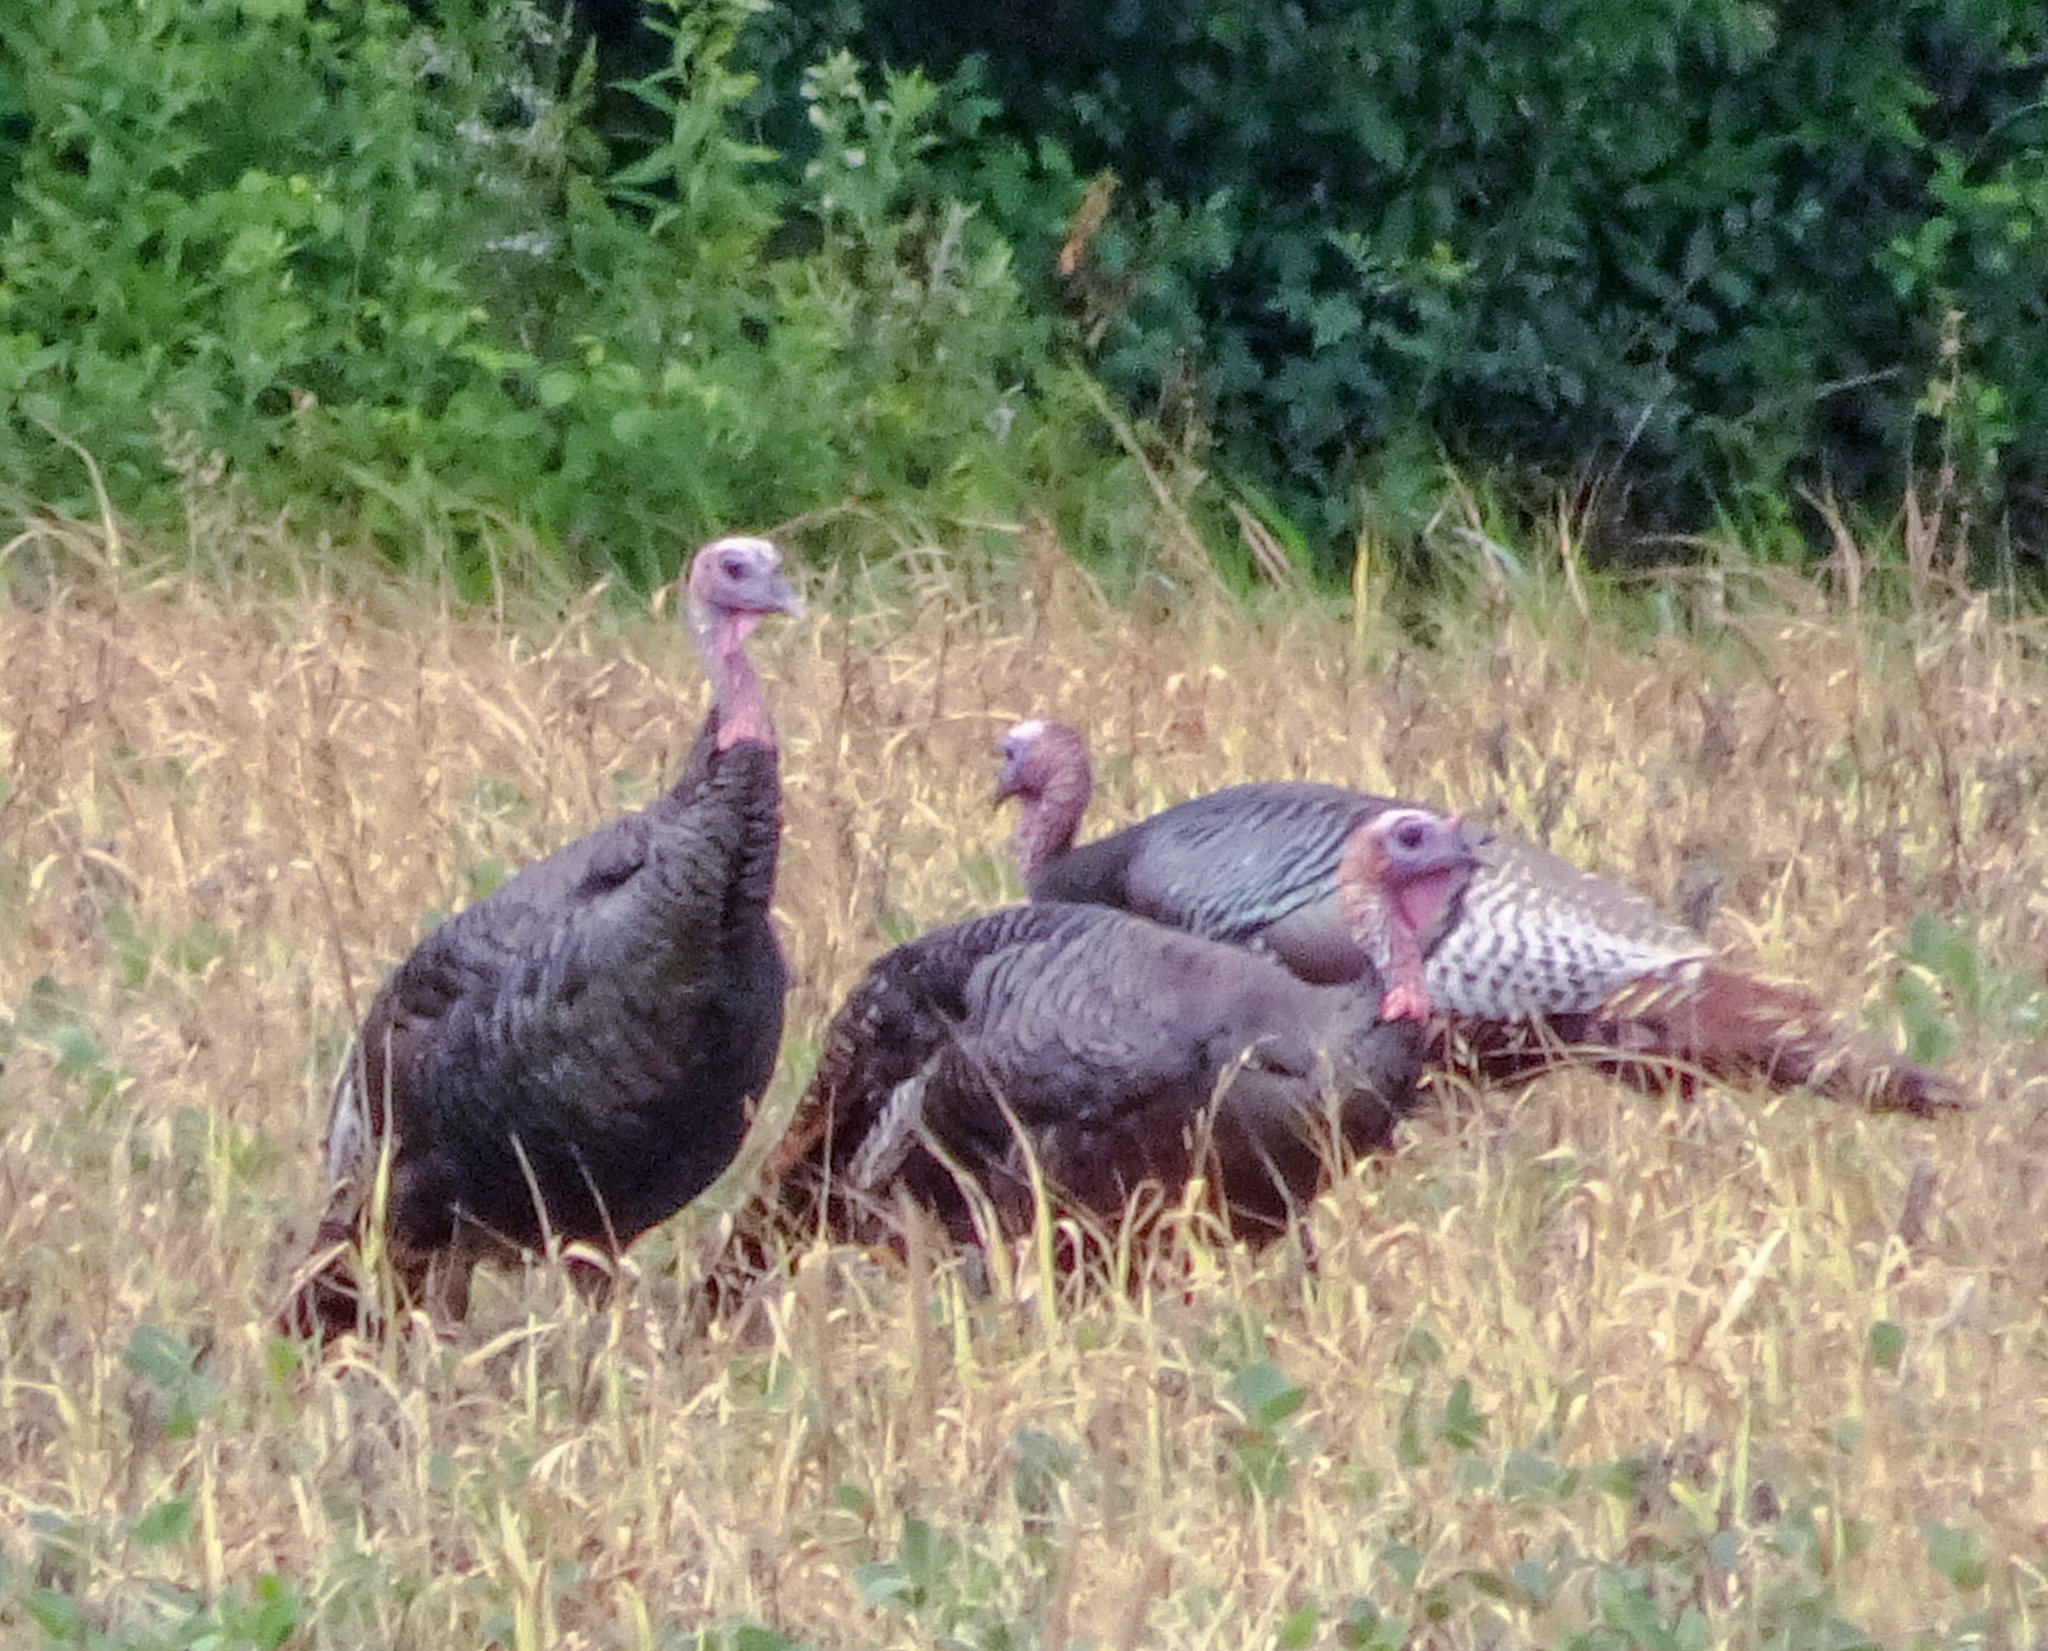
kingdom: Animalia
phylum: Chordata
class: Aves
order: Galliformes
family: Phasianidae
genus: Meleagris
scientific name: Meleagris gallopavo
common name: Wild turkey
